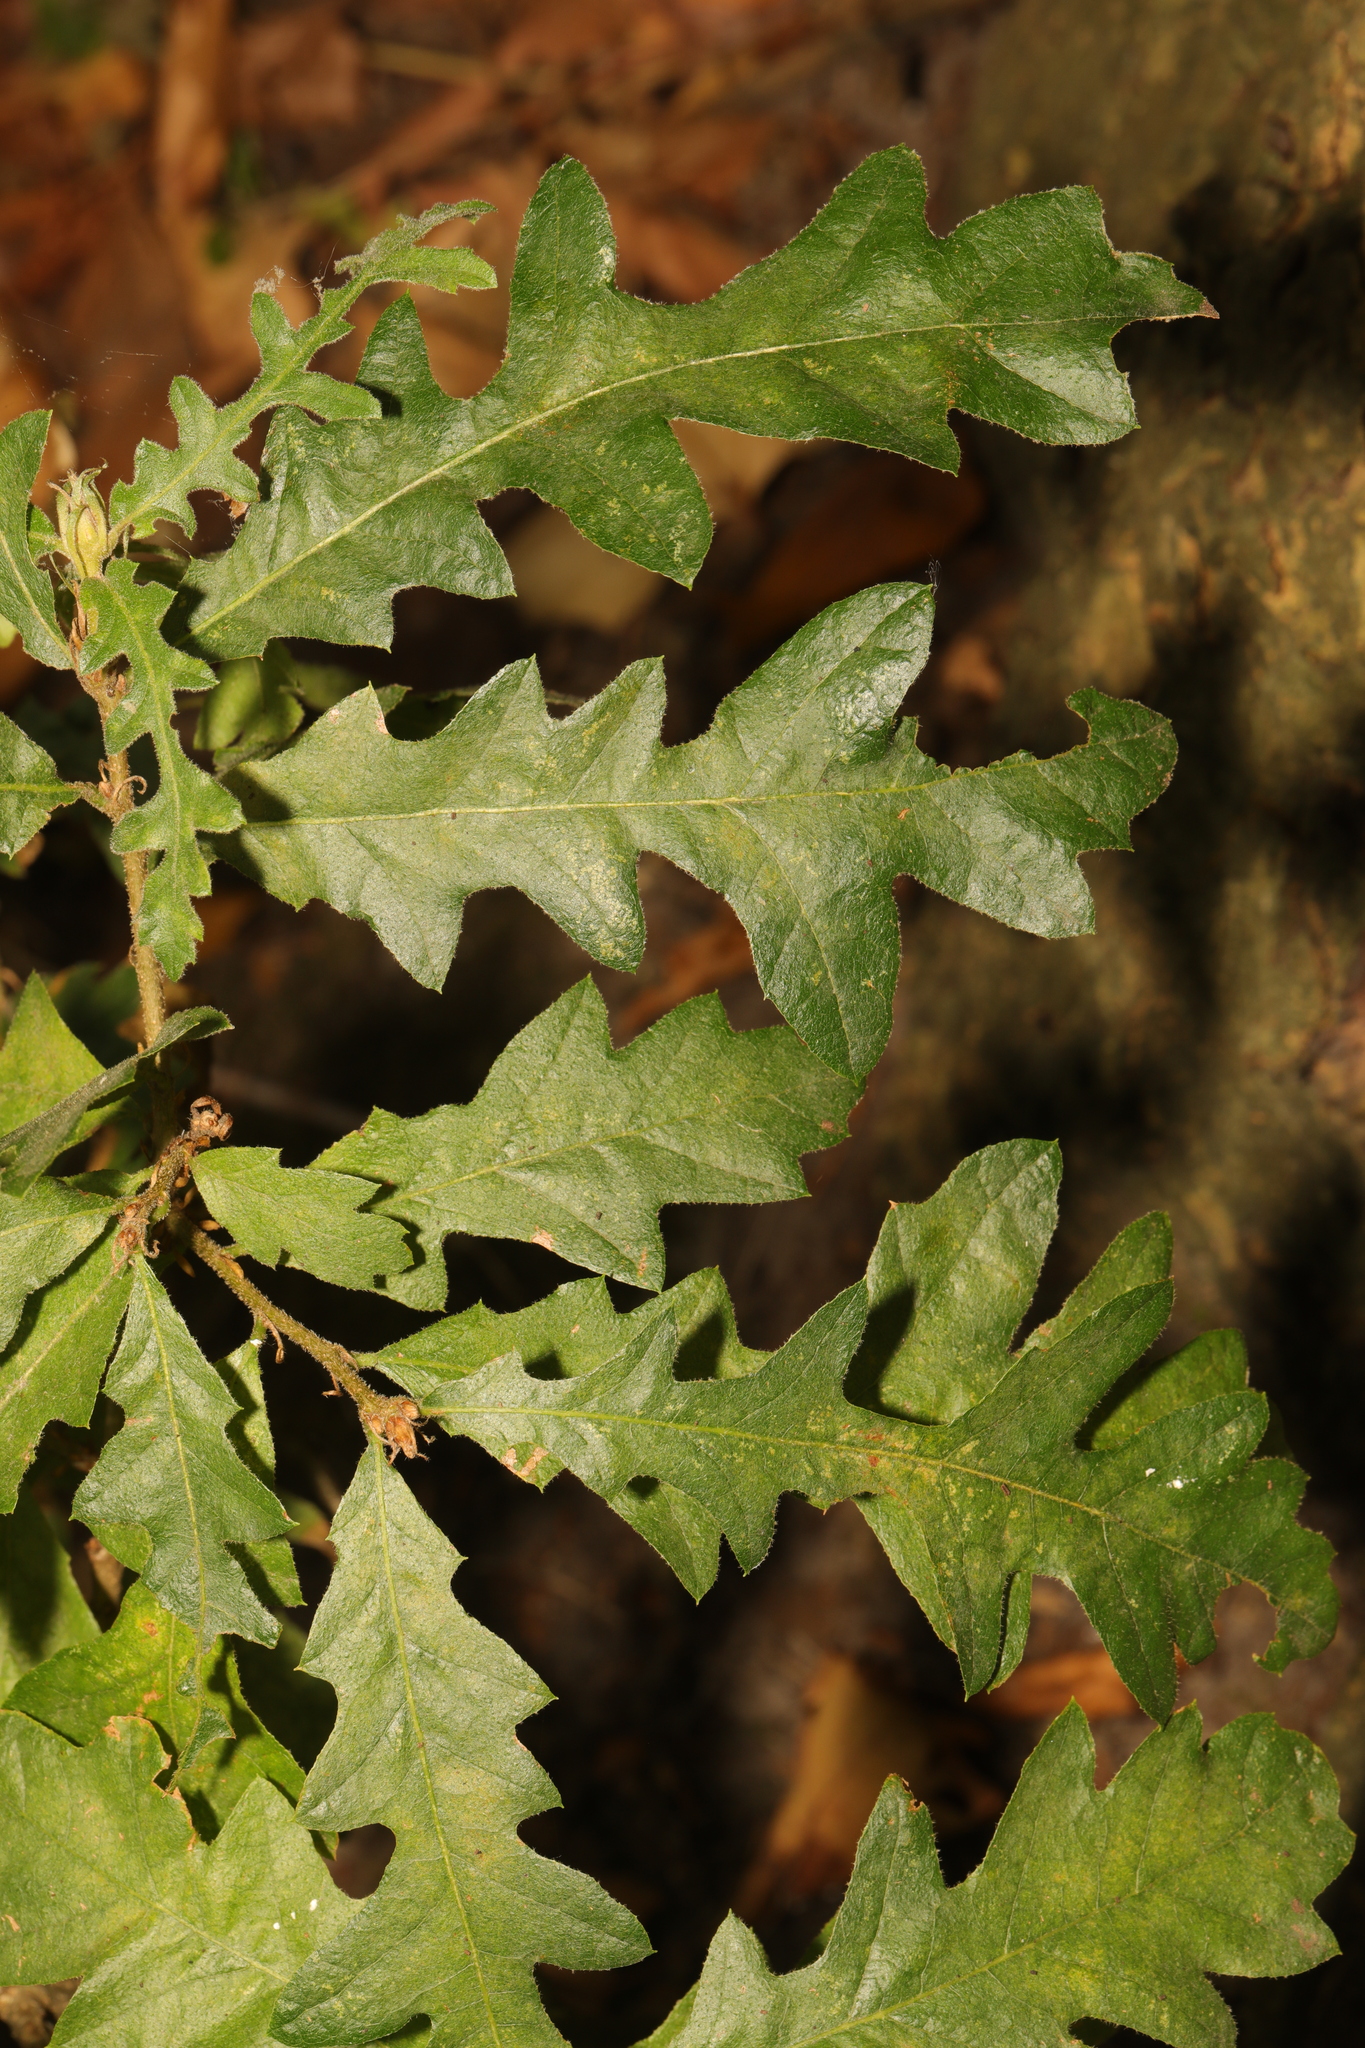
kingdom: Plantae
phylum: Tracheophyta
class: Magnoliopsida
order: Fagales
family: Fagaceae
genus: Quercus
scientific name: Quercus cerris
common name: Turkey oak
